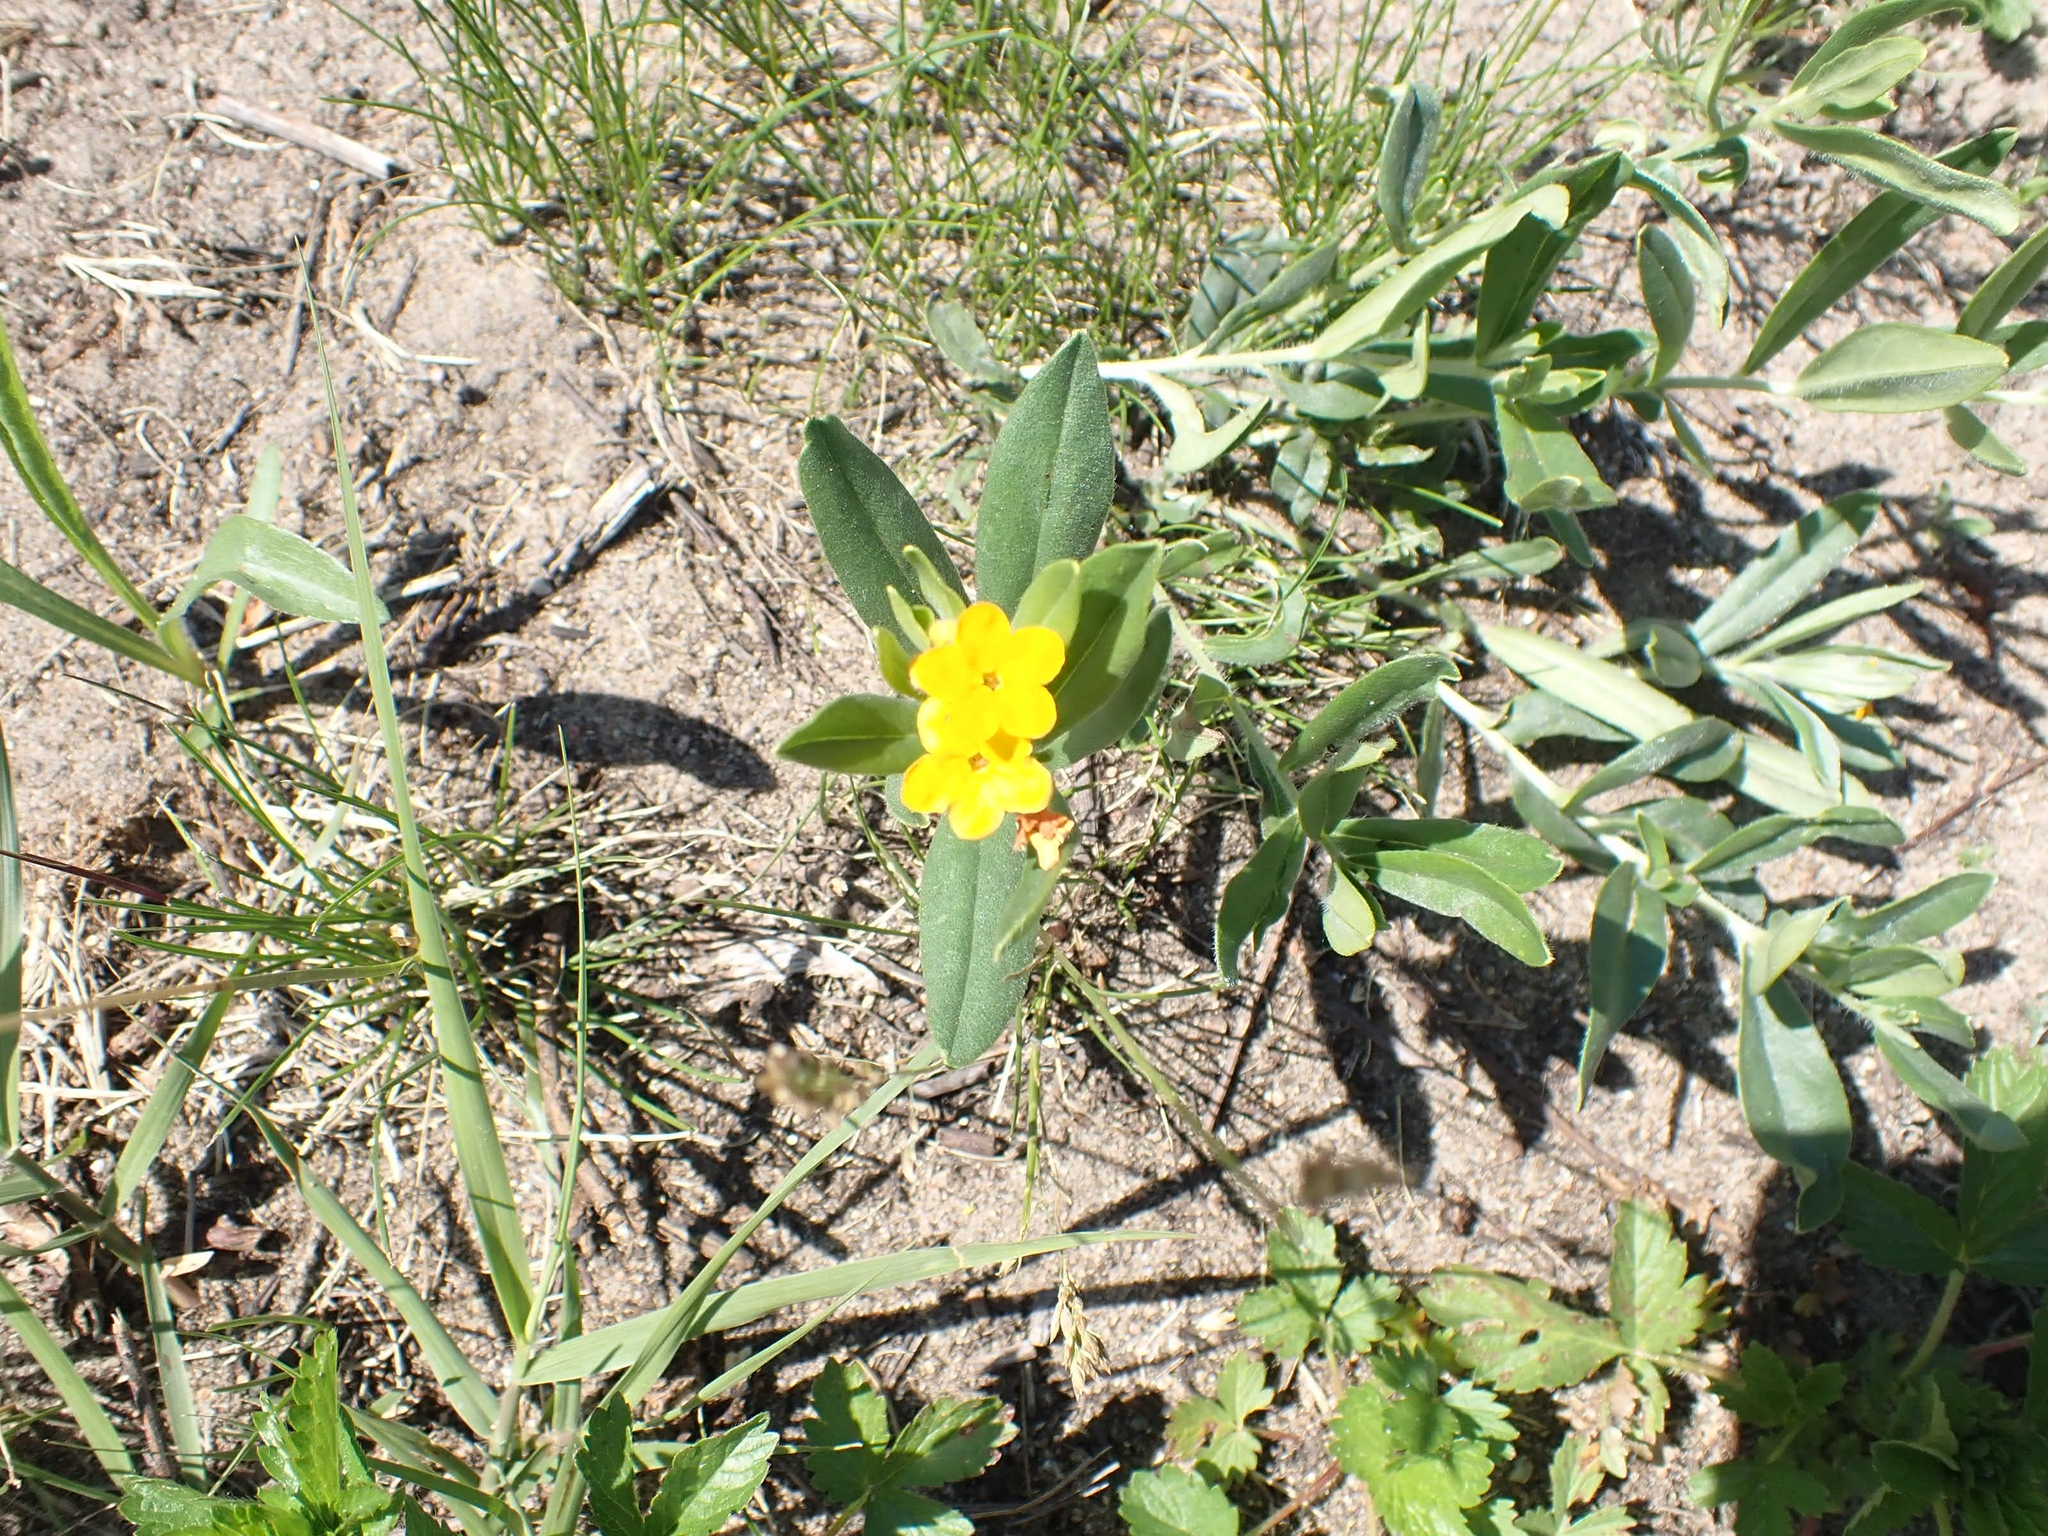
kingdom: Plantae
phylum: Tracheophyta
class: Magnoliopsida
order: Boraginales
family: Boraginaceae
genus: Lithospermum
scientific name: Lithospermum canescens
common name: Hoary puccoon
